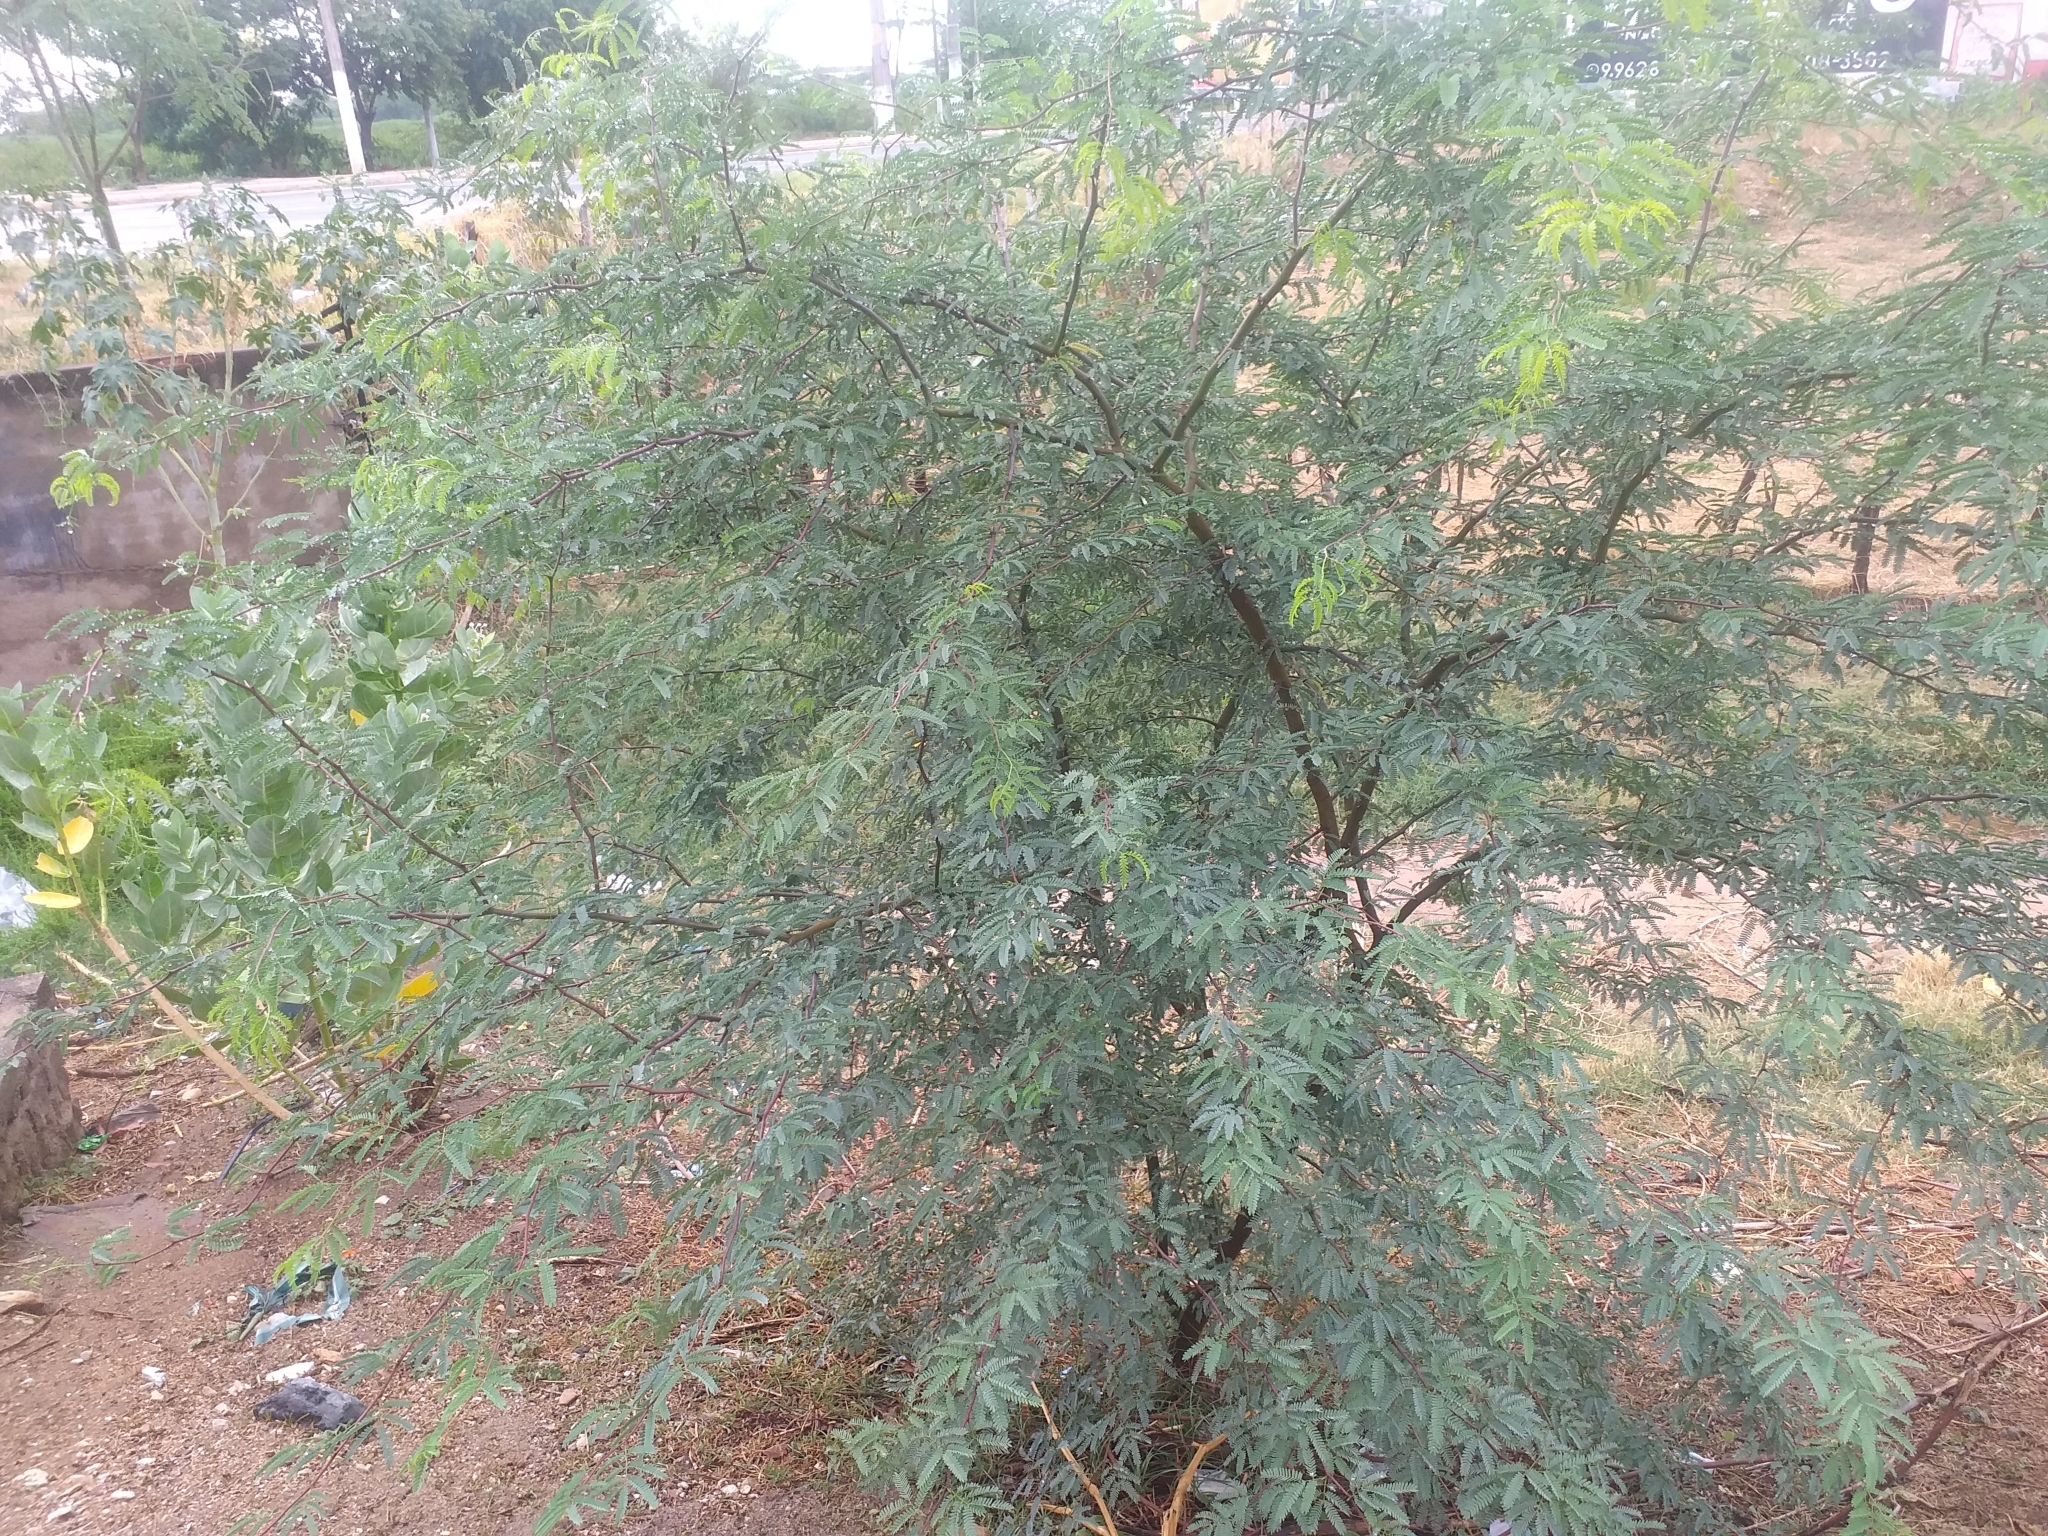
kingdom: Plantae
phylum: Tracheophyta
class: Magnoliopsida
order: Fabales
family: Fabaceae
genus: Mimosa
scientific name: Mimosa tenuiflora
